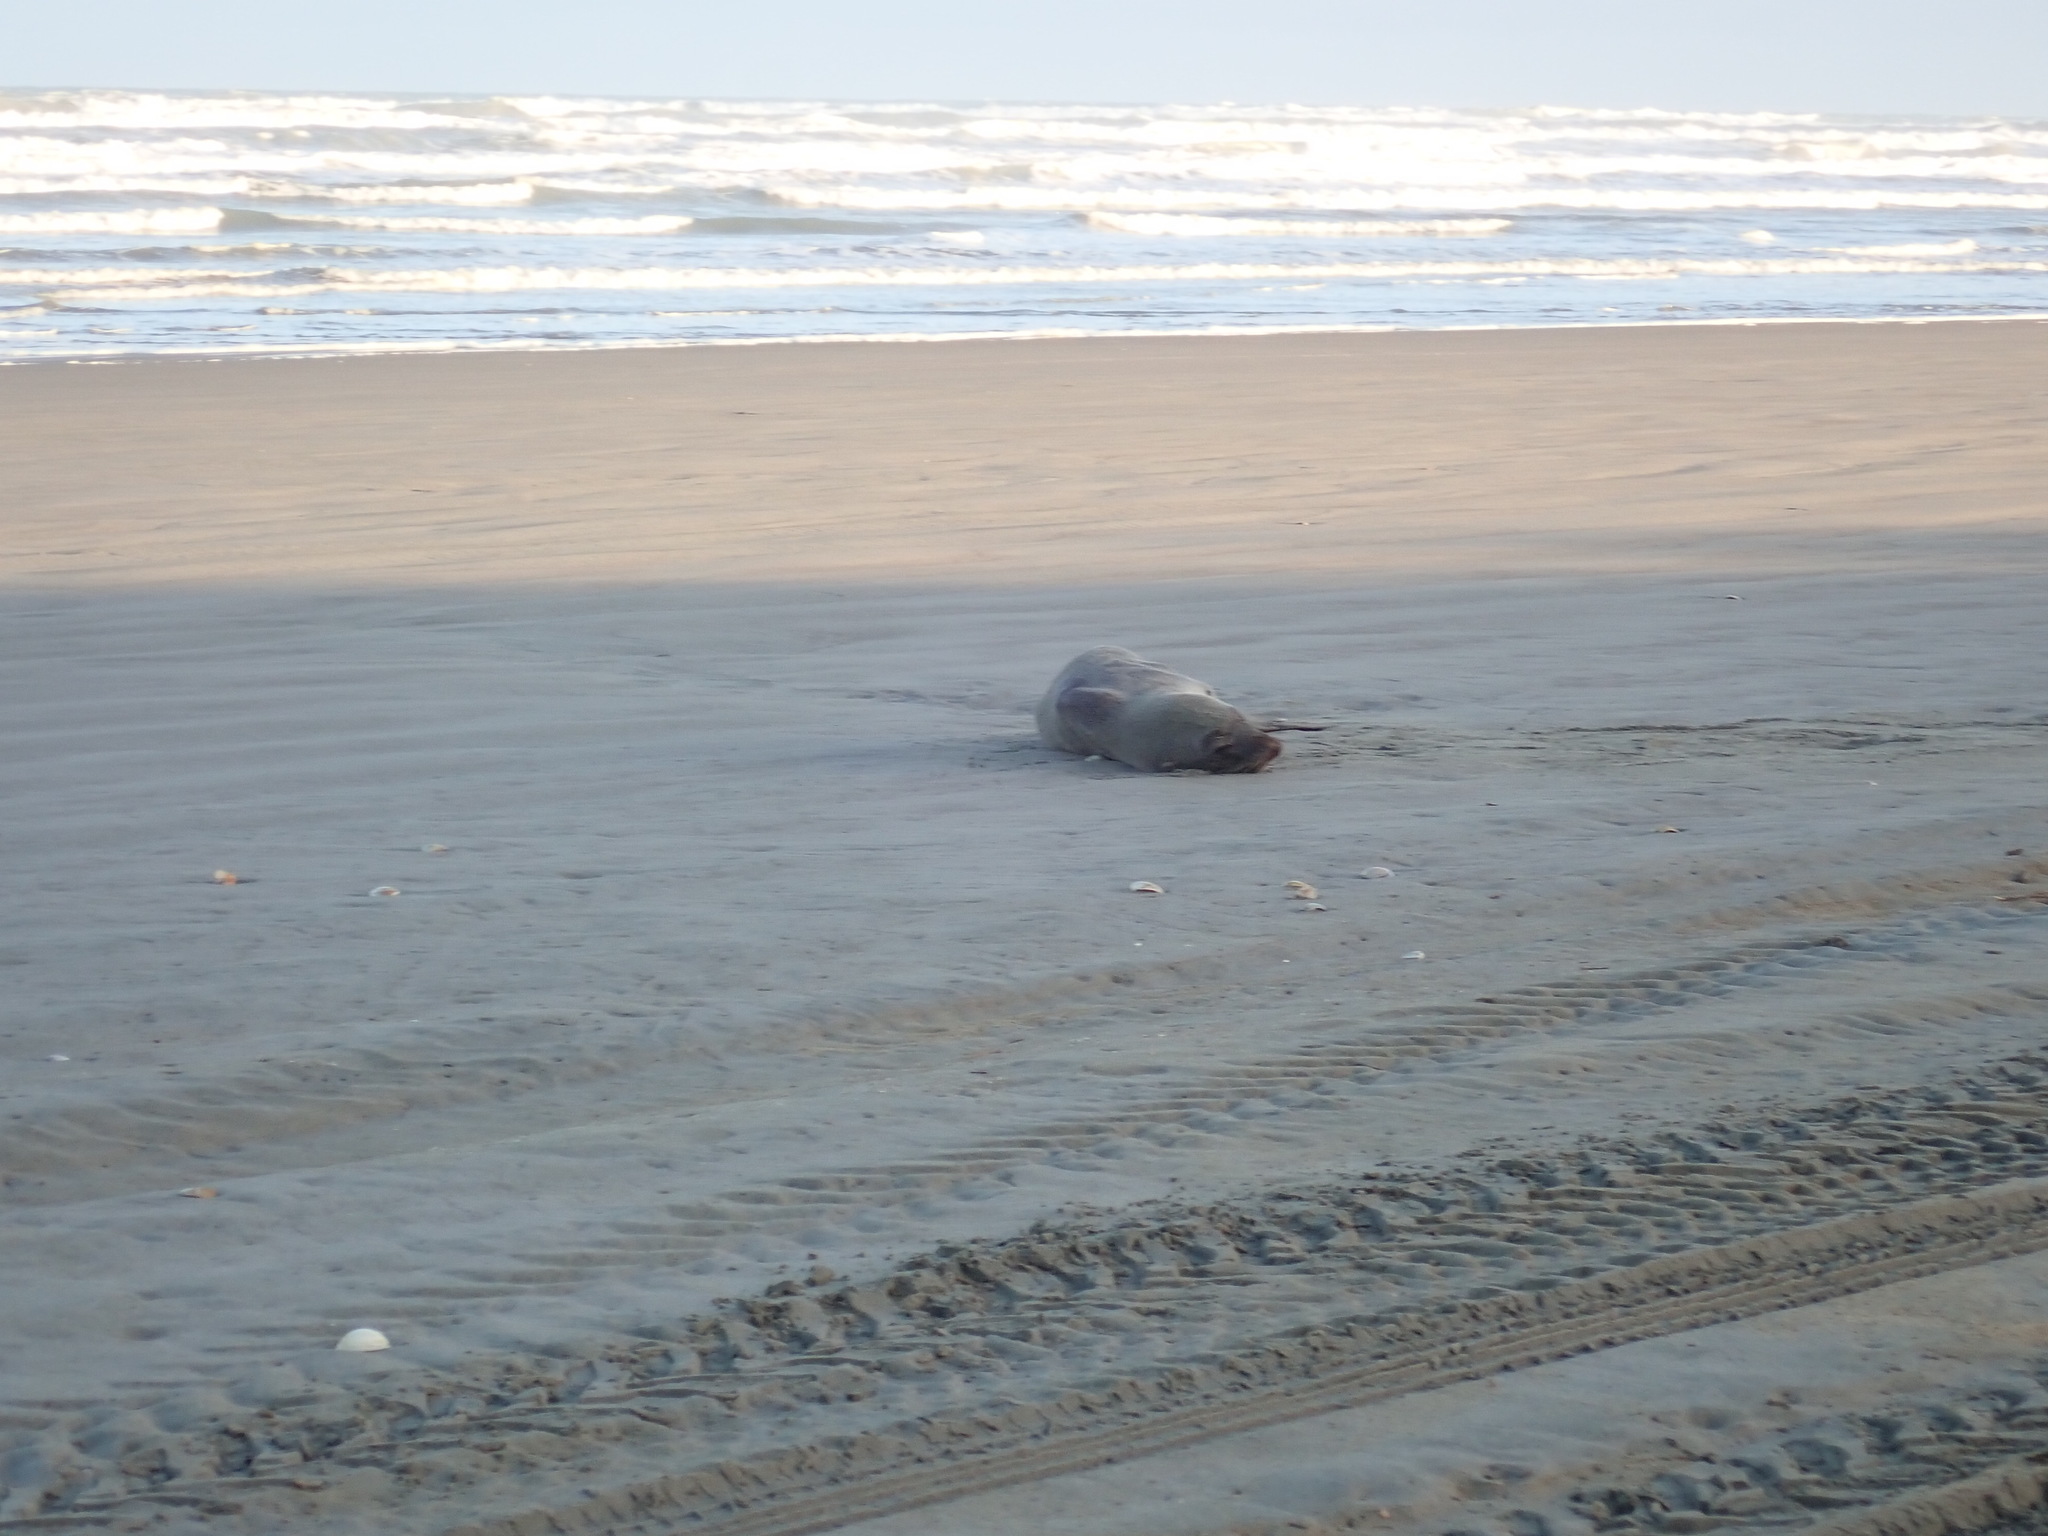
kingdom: Animalia
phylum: Chordata
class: Mammalia
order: Carnivora
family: Otariidae
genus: Arctocephalus
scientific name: Arctocephalus forsteri
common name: New zealand fur seal
